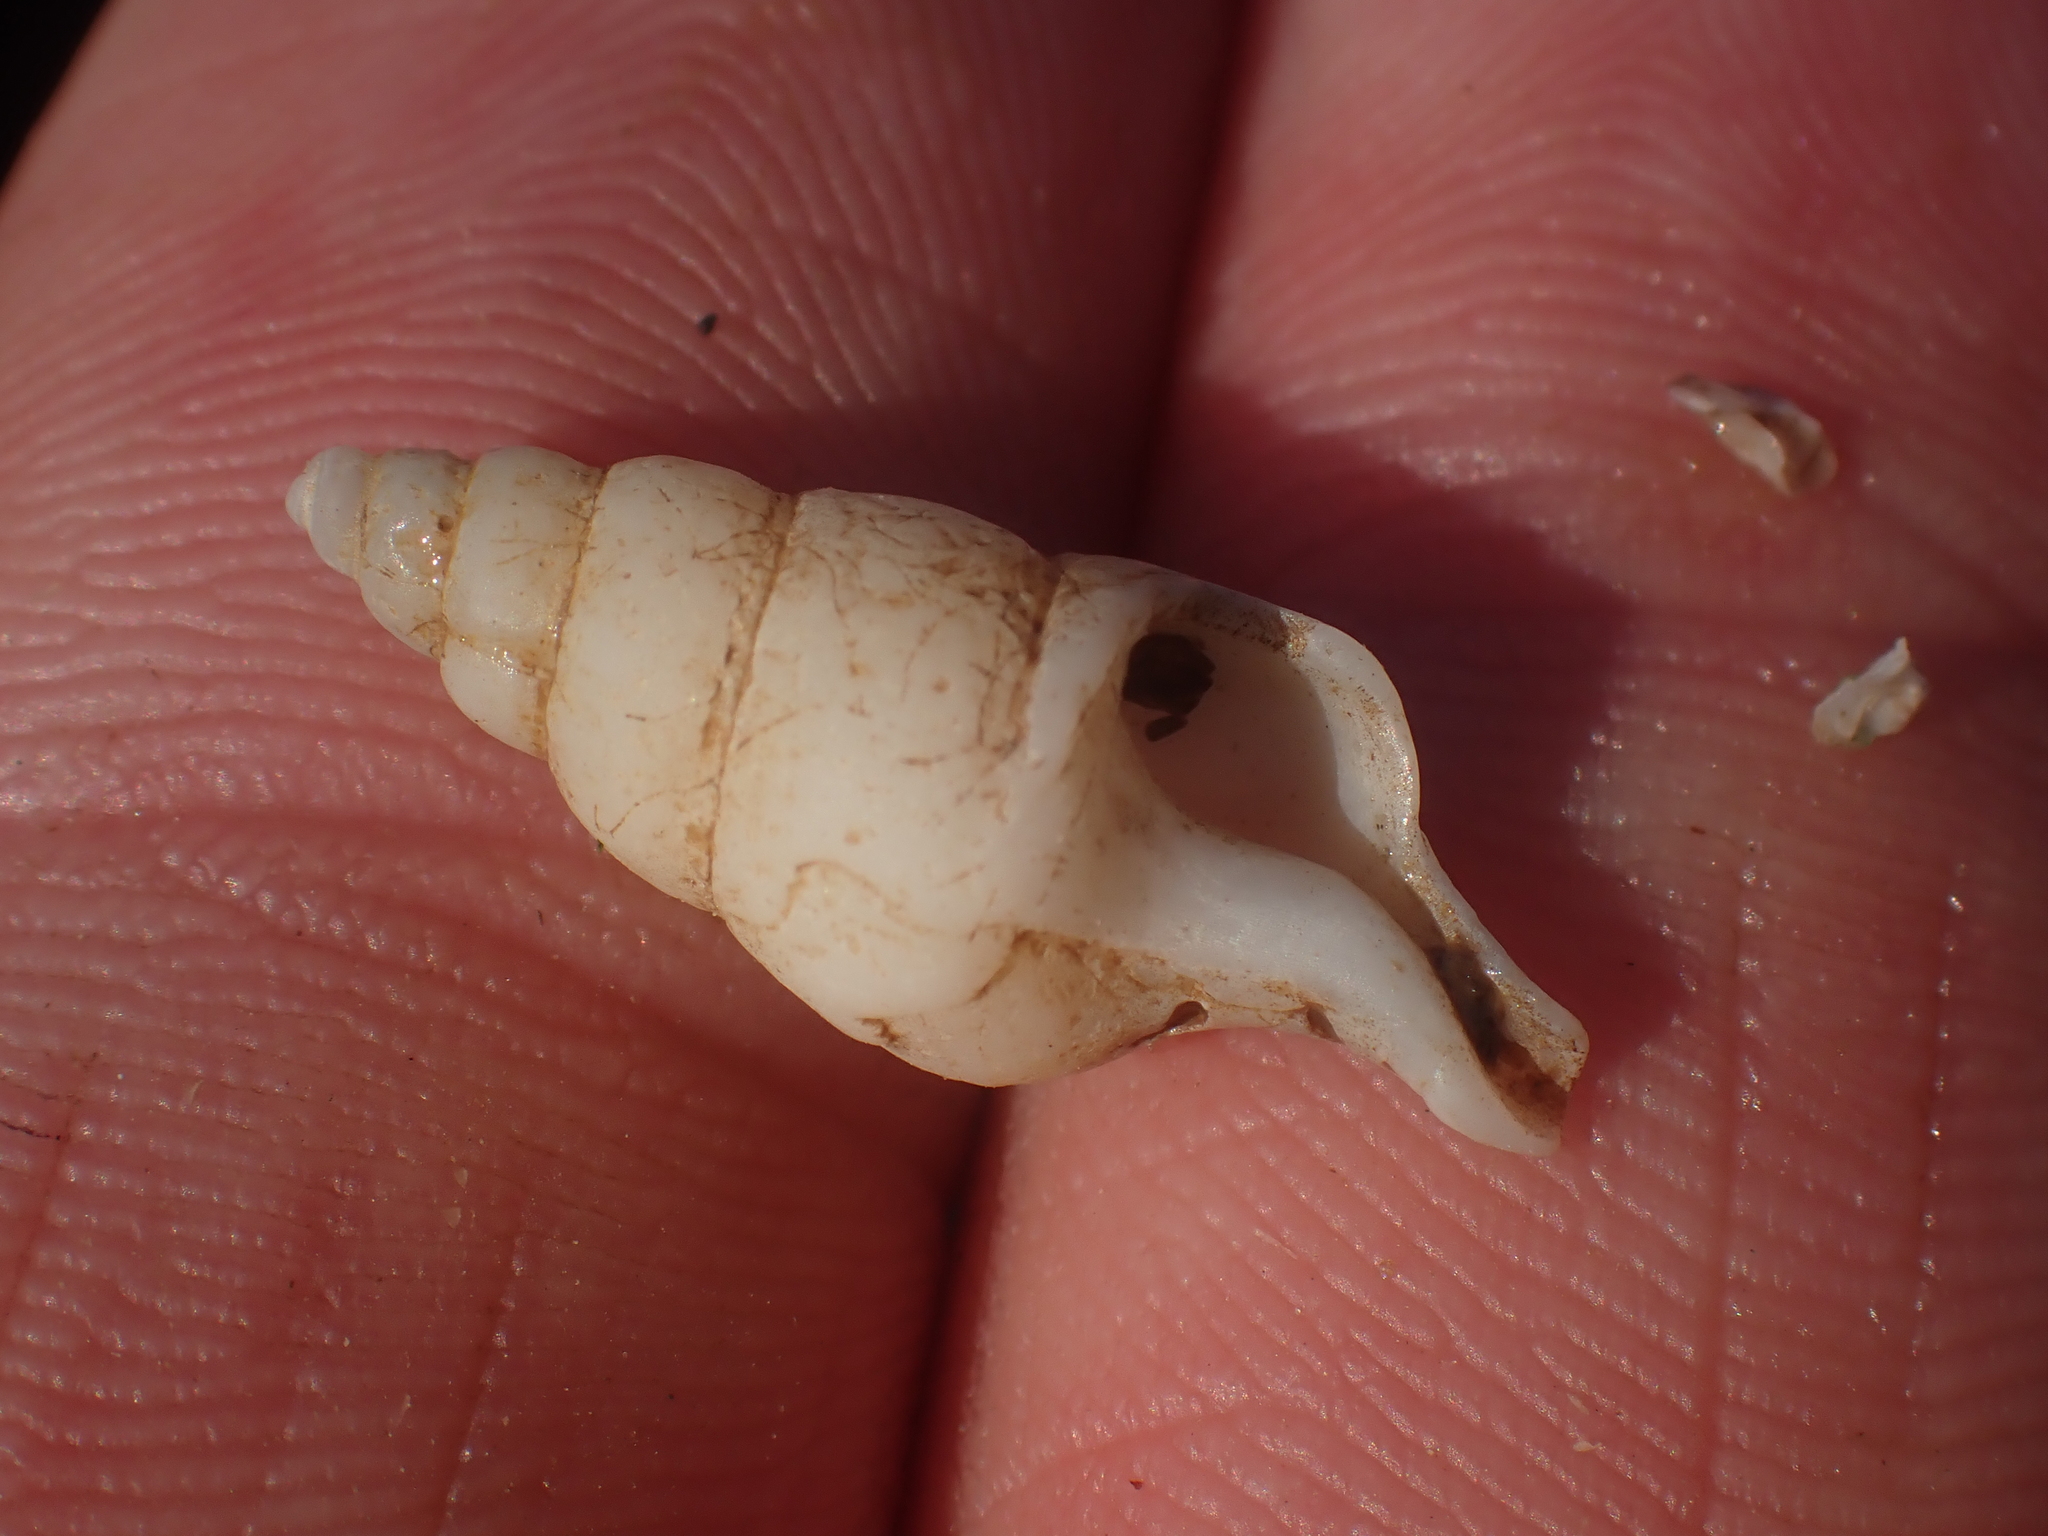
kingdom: Animalia
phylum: Mollusca
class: Gastropoda
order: Neogastropoda
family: Colidae
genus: Colus
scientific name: Colus stimpsoni
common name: Stimpson's colus
